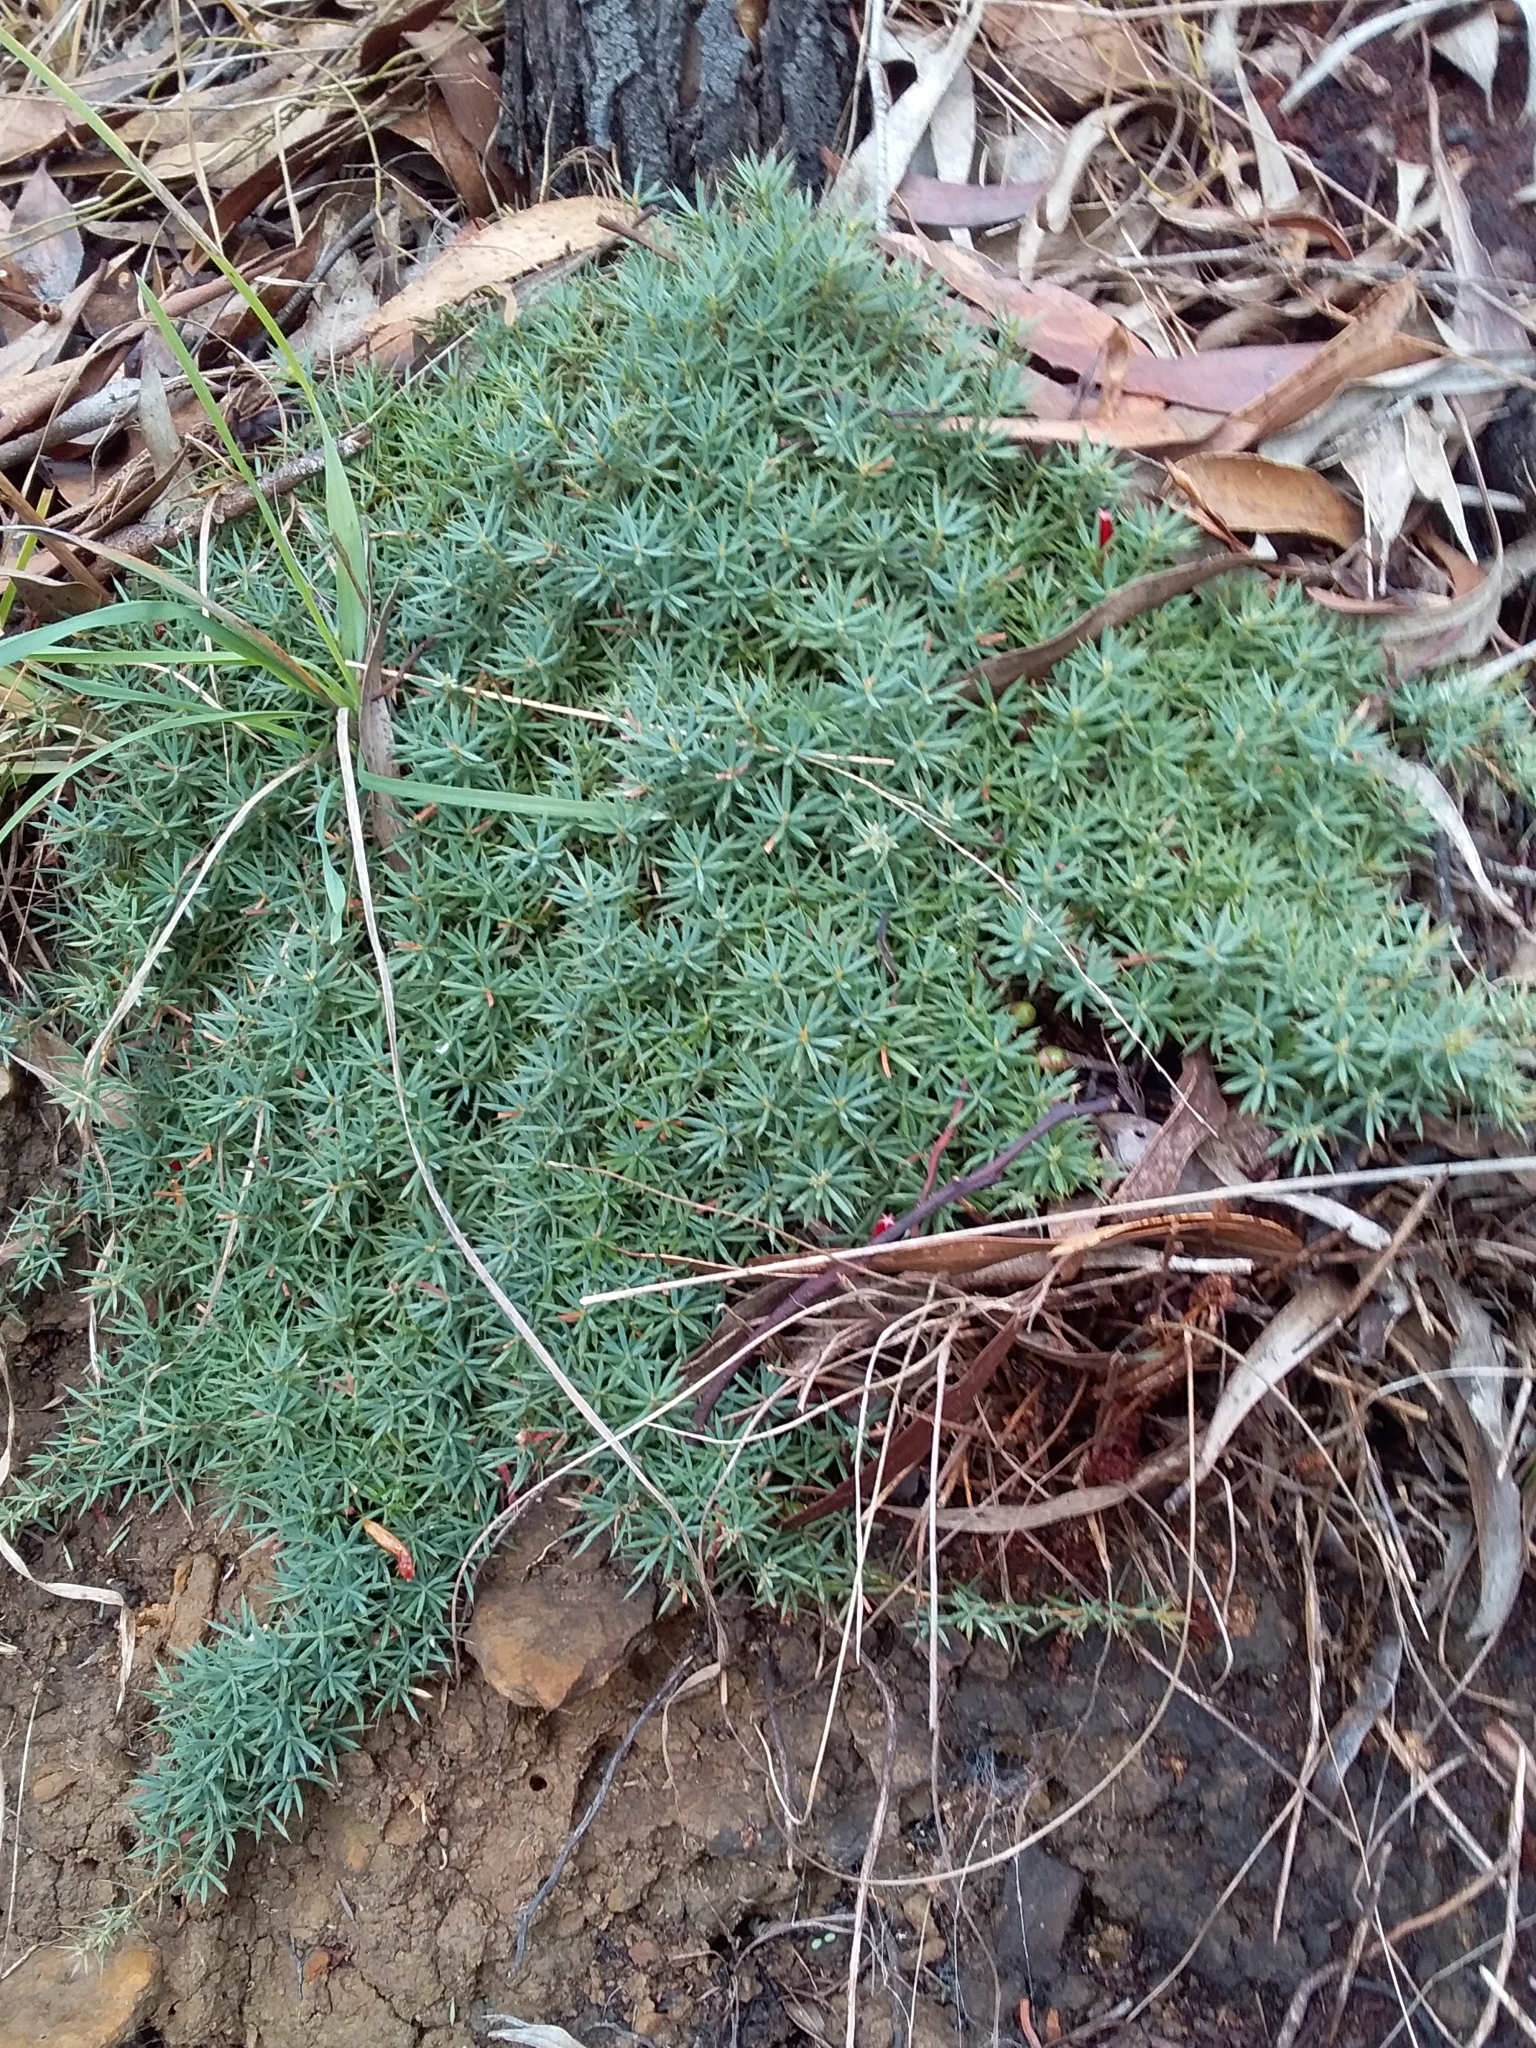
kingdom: Plantae
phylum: Tracheophyta
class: Magnoliopsida
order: Ericales
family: Ericaceae
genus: Styphelia
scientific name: Styphelia humifusa
